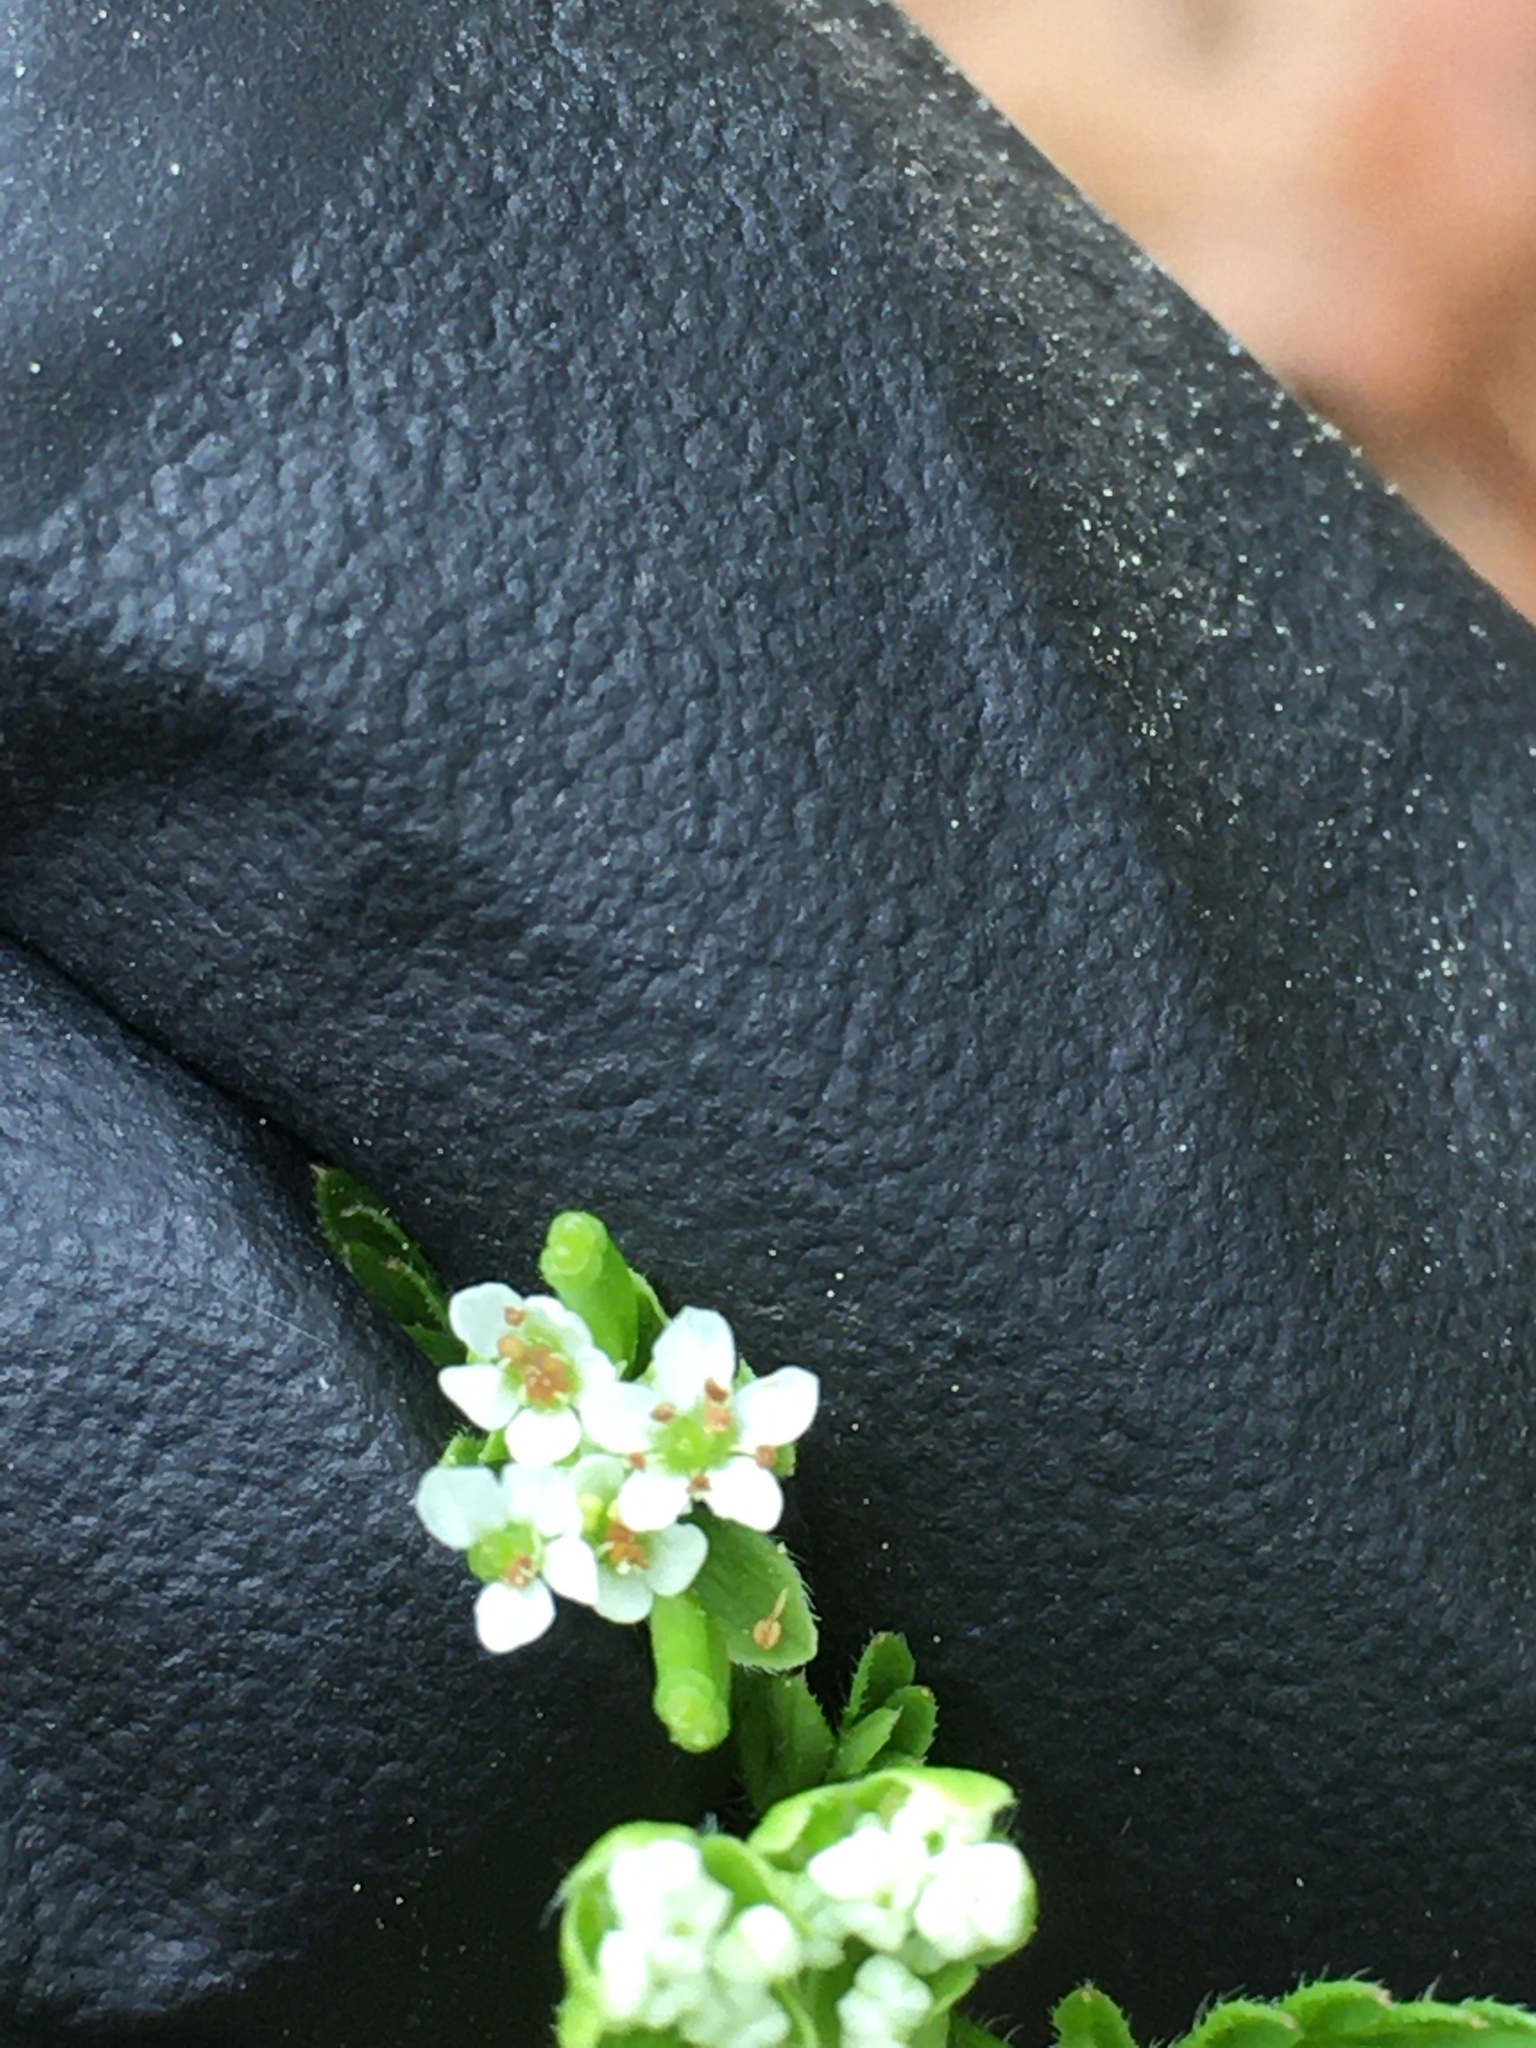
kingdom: Plantae
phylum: Tracheophyta
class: Magnoliopsida
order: Apiales
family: Apiaceae
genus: Chaerophyllum
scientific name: Chaerophyllum tainturieri
